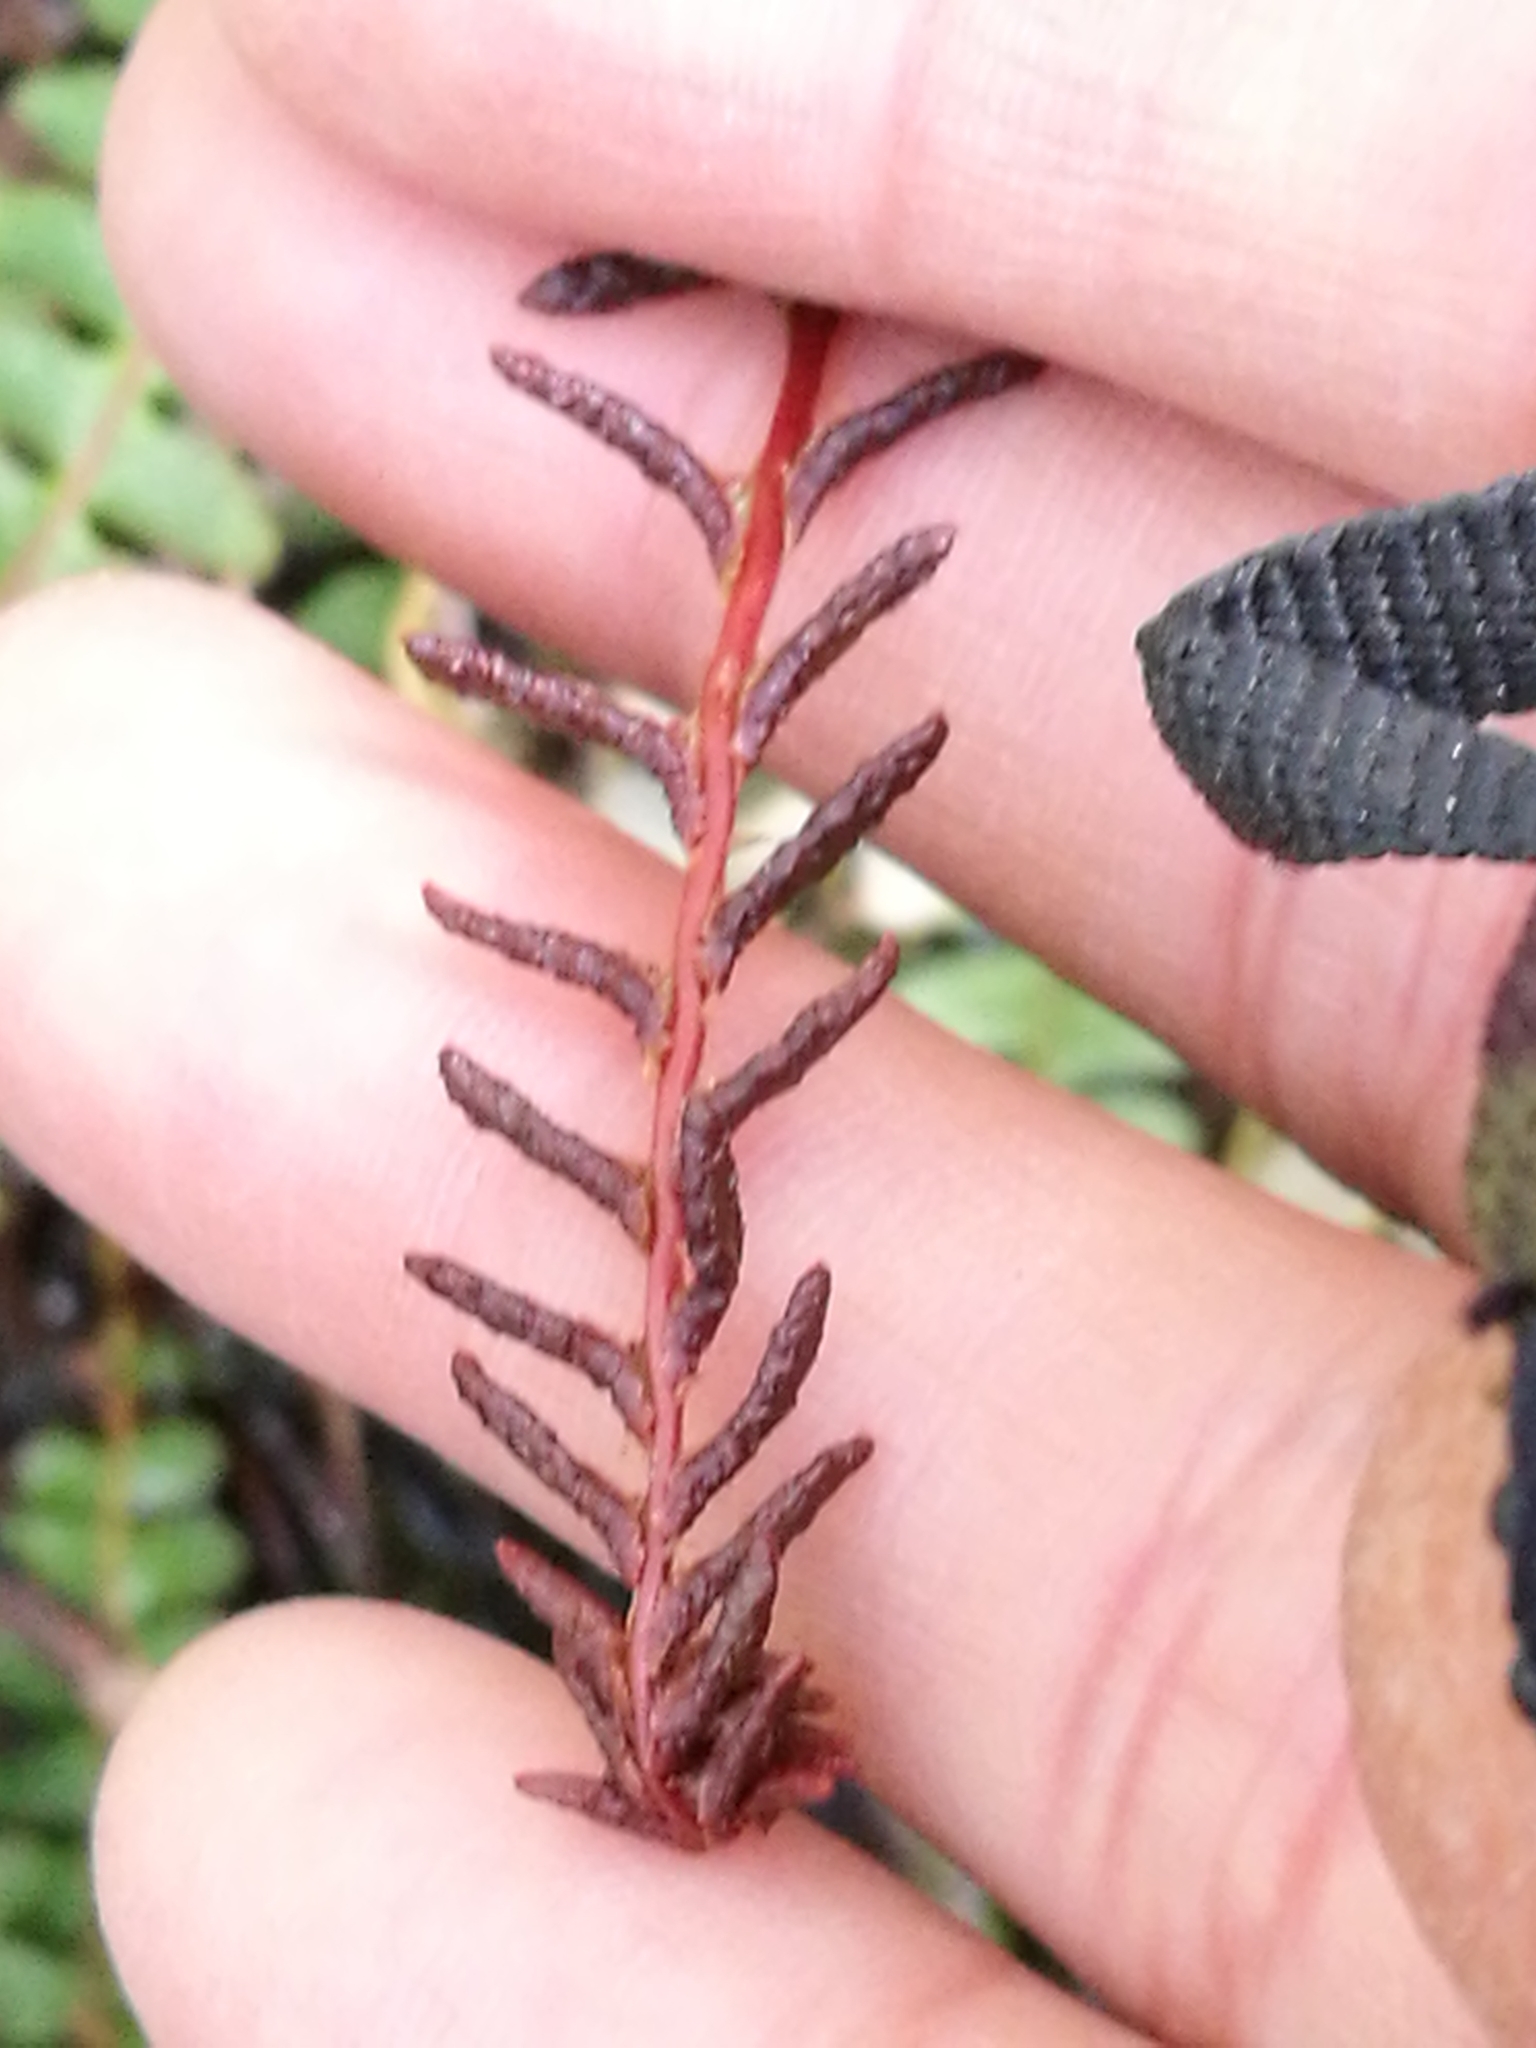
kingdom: Plantae
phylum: Tracheophyta
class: Polypodiopsida
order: Polypodiales
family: Blechnaceae
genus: Austroblechnum
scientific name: Austroblechnum penna-marina
